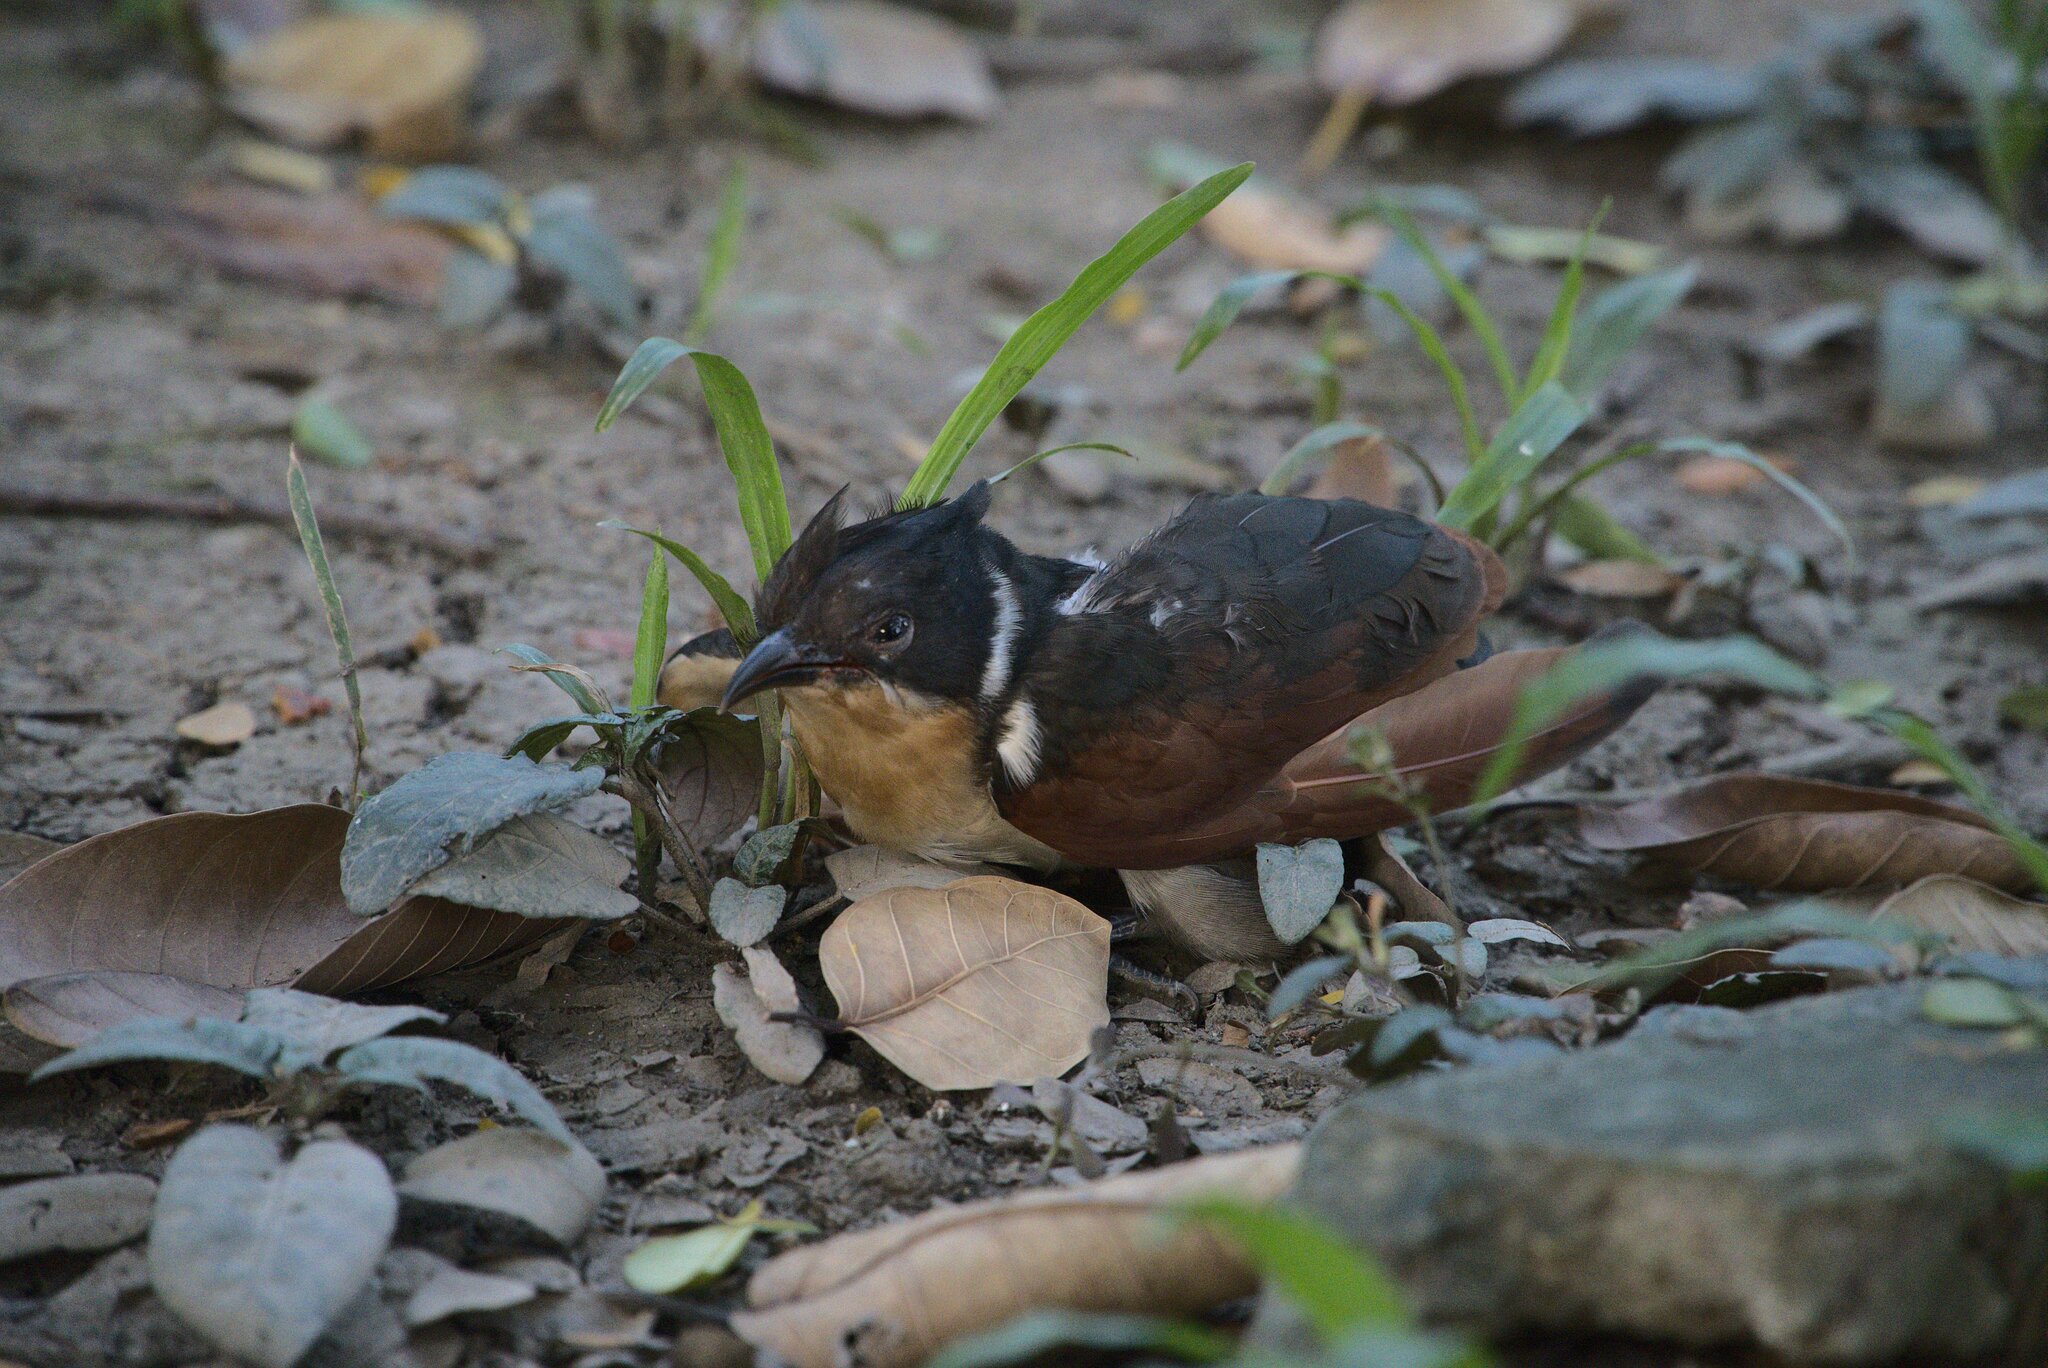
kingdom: Animalia
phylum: Chordata
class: Aves
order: Cuculiformes
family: Cuculidae
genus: Clamator
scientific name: Clamator coromandus
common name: Chestnut-winged cuckoo
